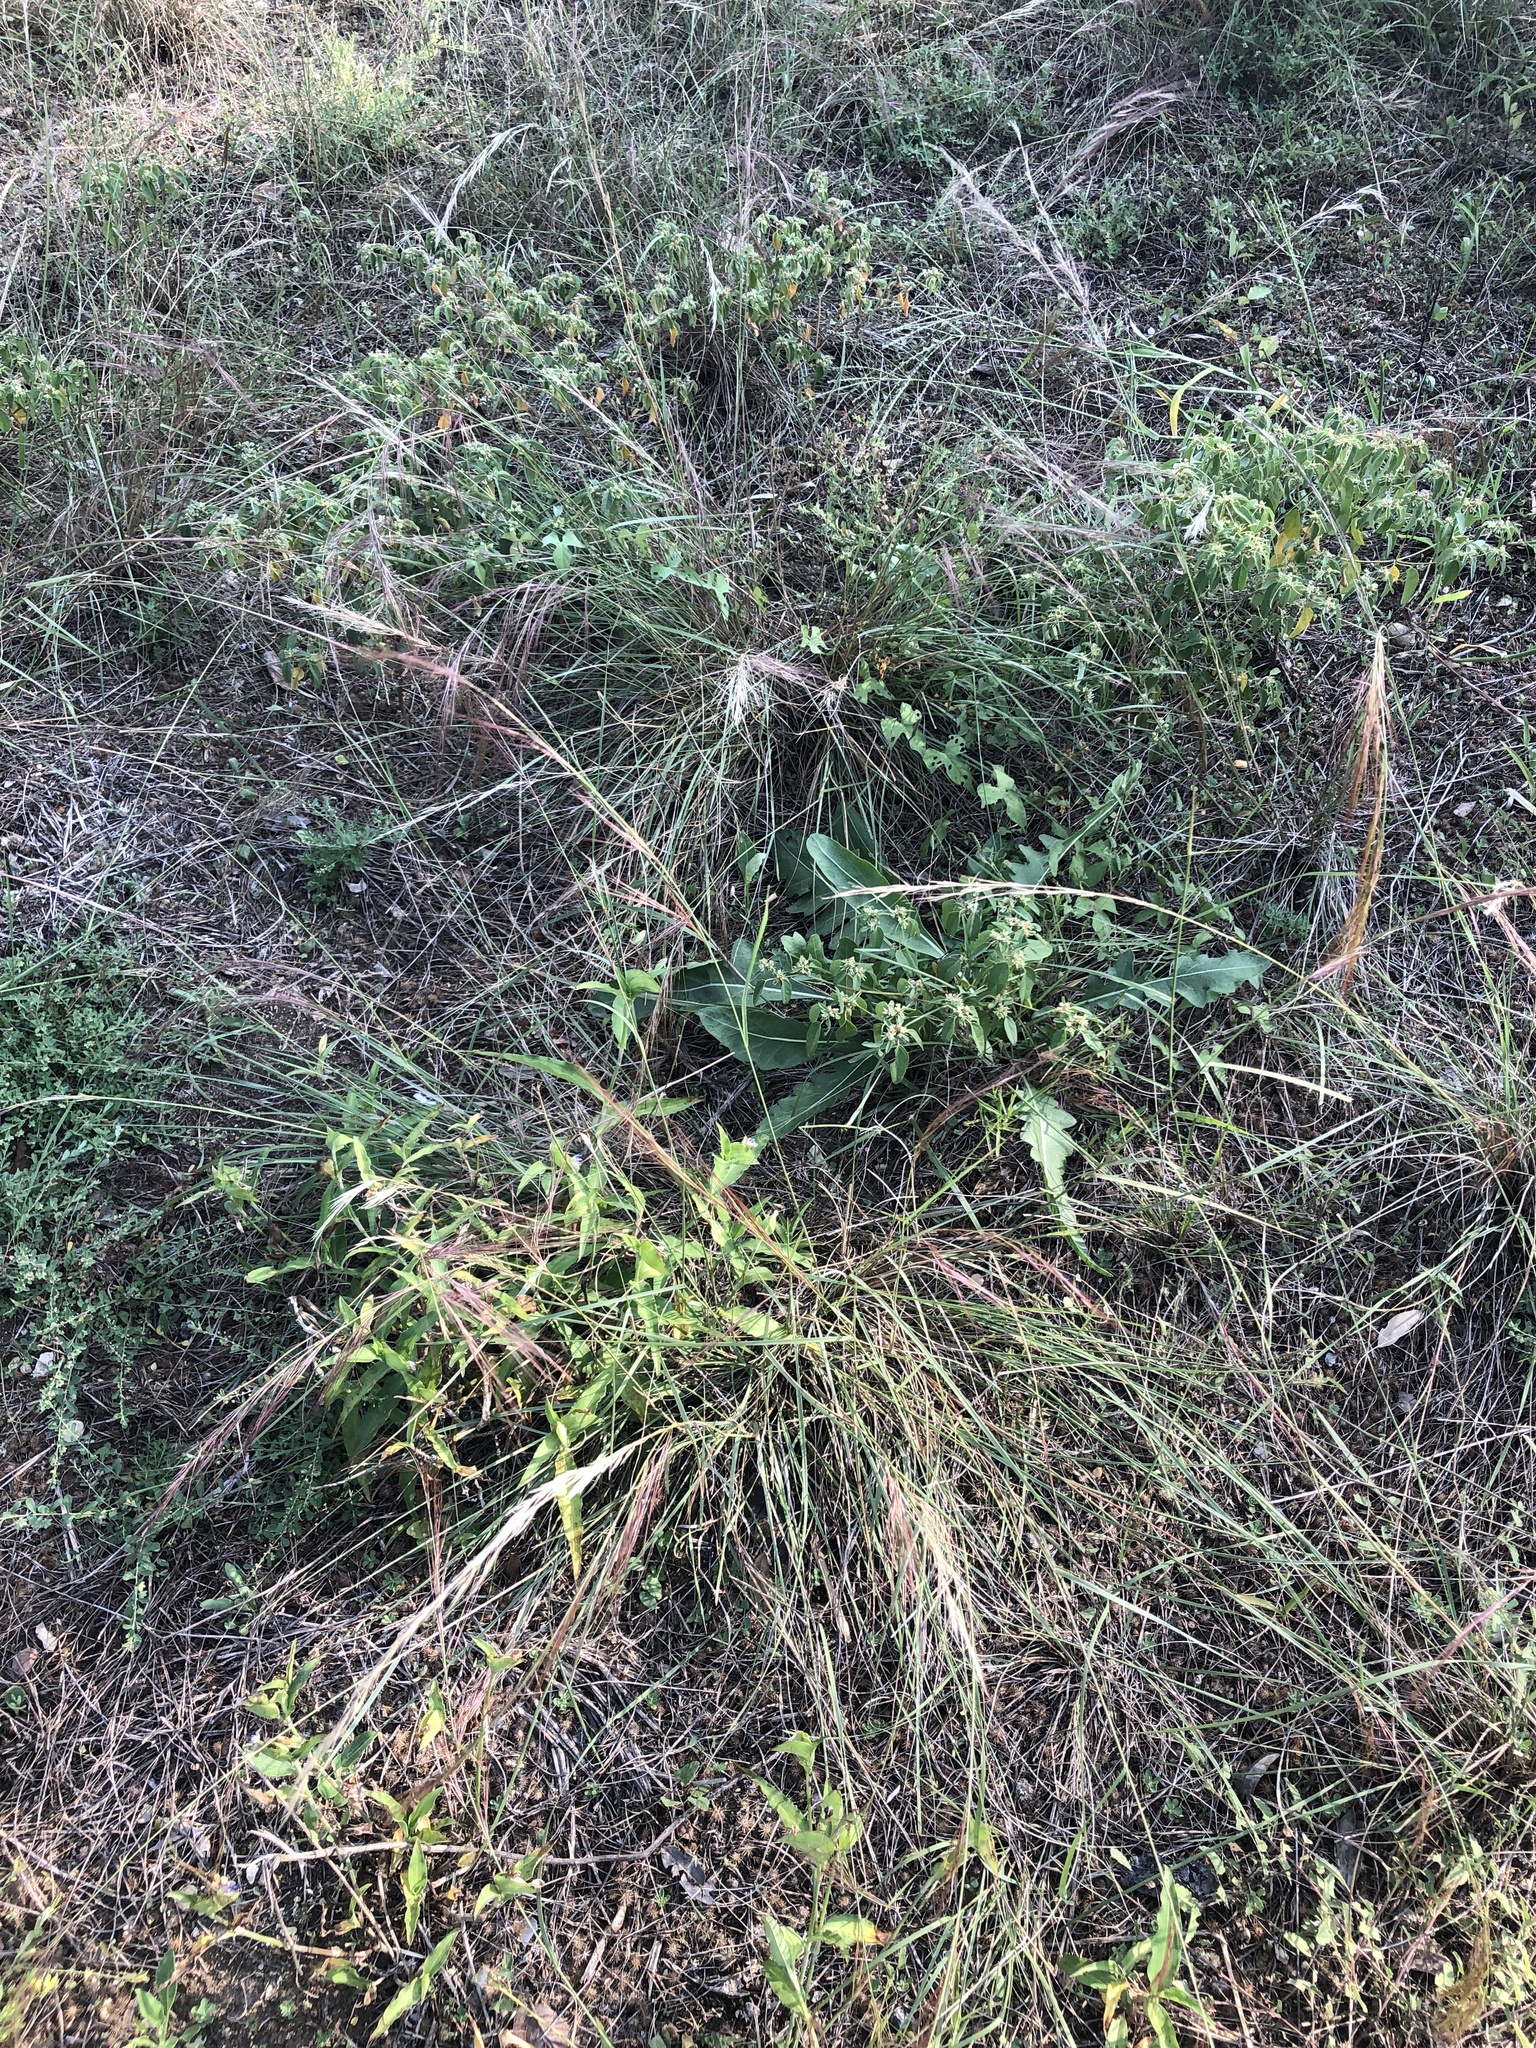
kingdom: Plantae
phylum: Tracheophyta
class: Liliopsida
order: Poales
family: Poaceae
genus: Aristida
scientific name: Aristida purpurea
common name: Purple threeawn
